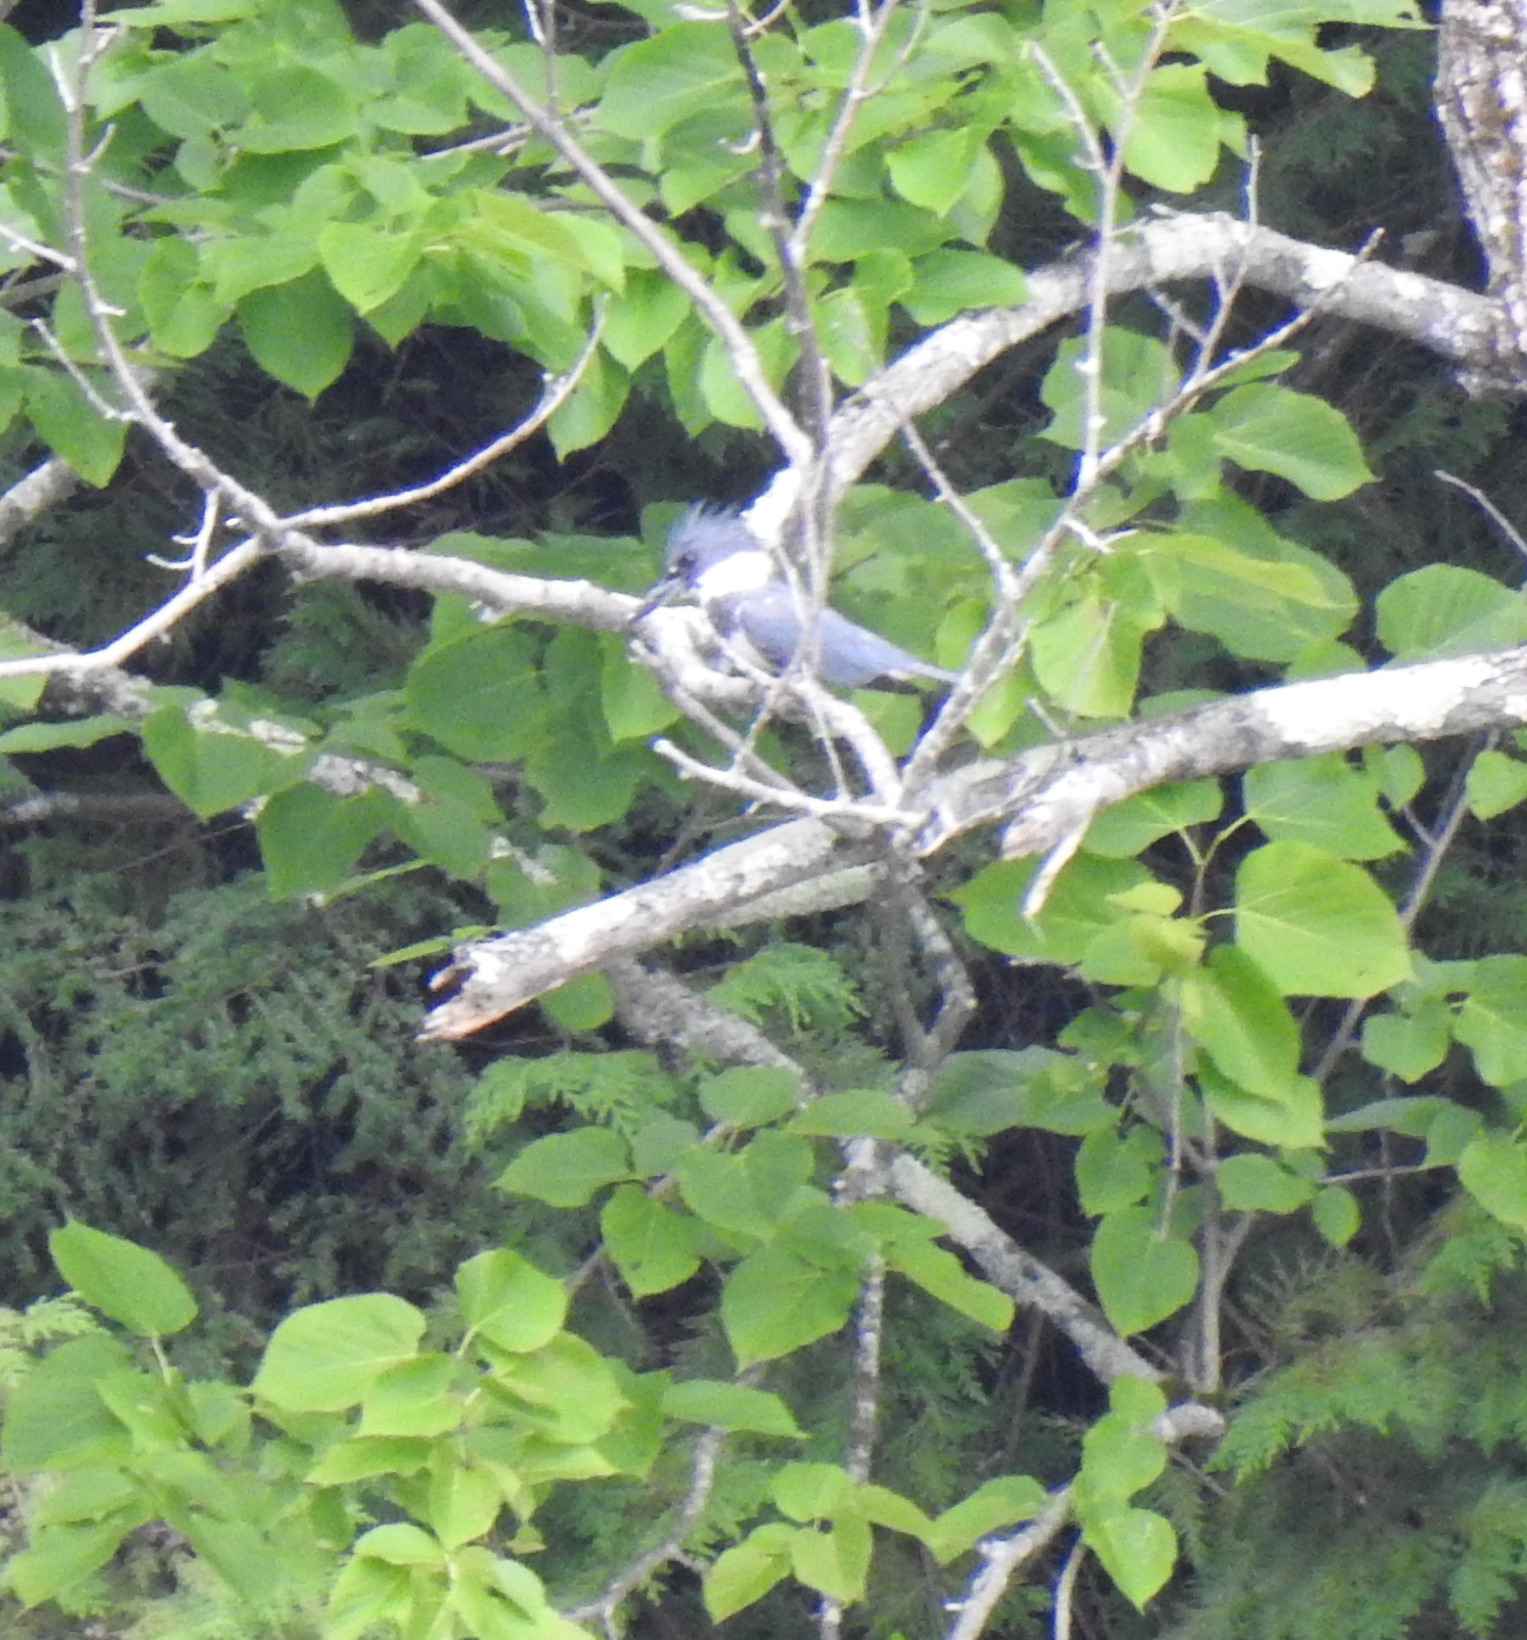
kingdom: Animalia
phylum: Chordata
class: Aves
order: Coraciiformes
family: Alcedinidae
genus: Megaceryle
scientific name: Megaceryle alcyon
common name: Belted kingfisher
